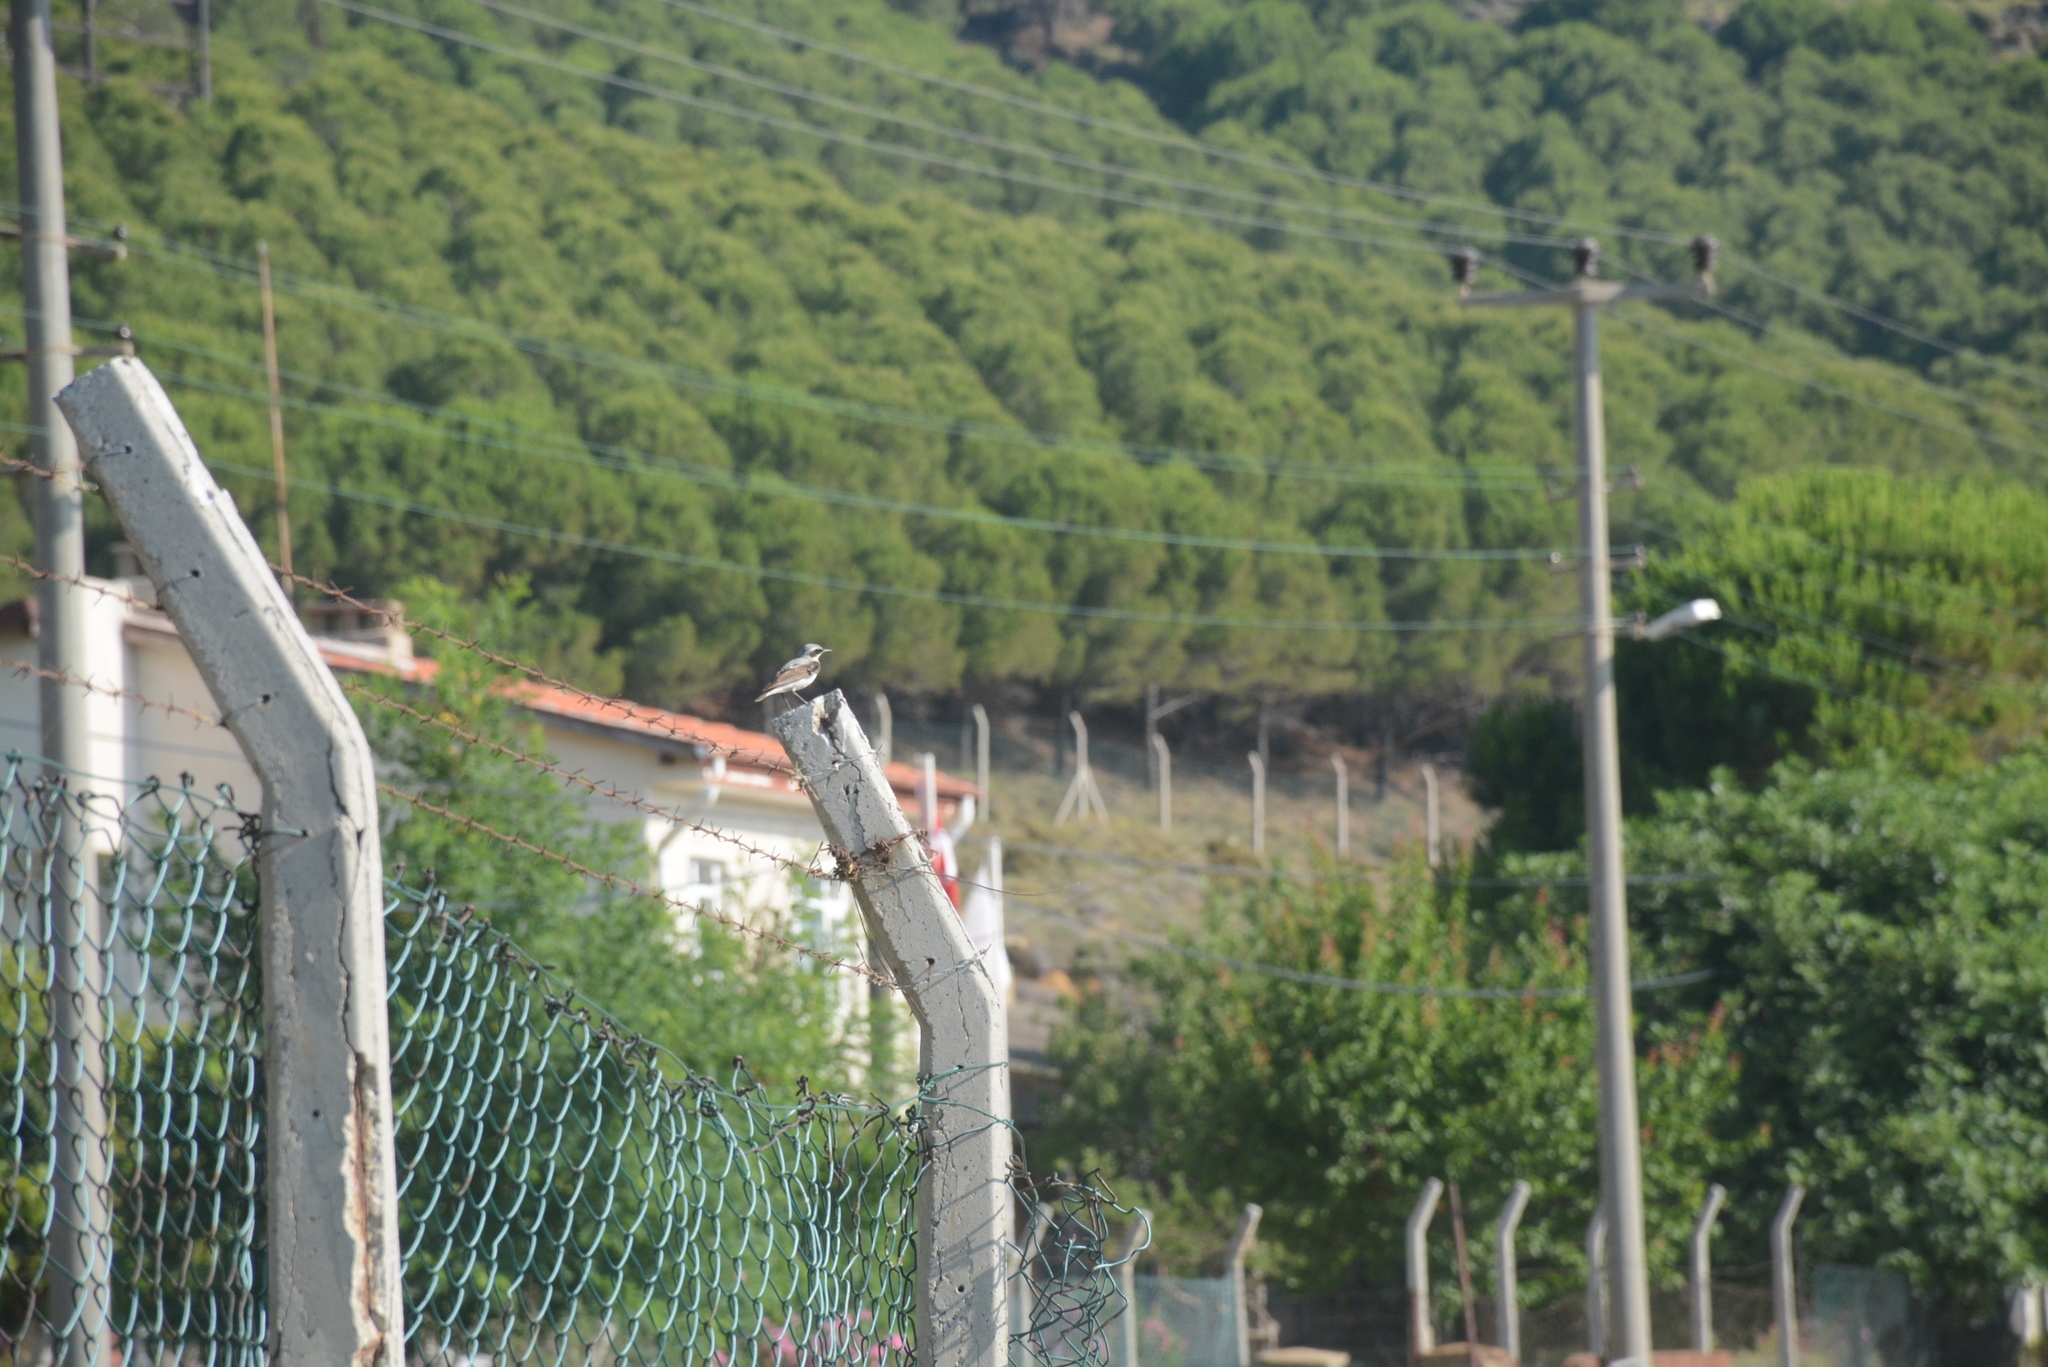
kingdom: Animalia
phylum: Chordata
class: Aves
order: Passeriformes
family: Muscicapidae
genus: Oenanthe
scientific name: Oenanthe oenanthe
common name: Northern wheatear
